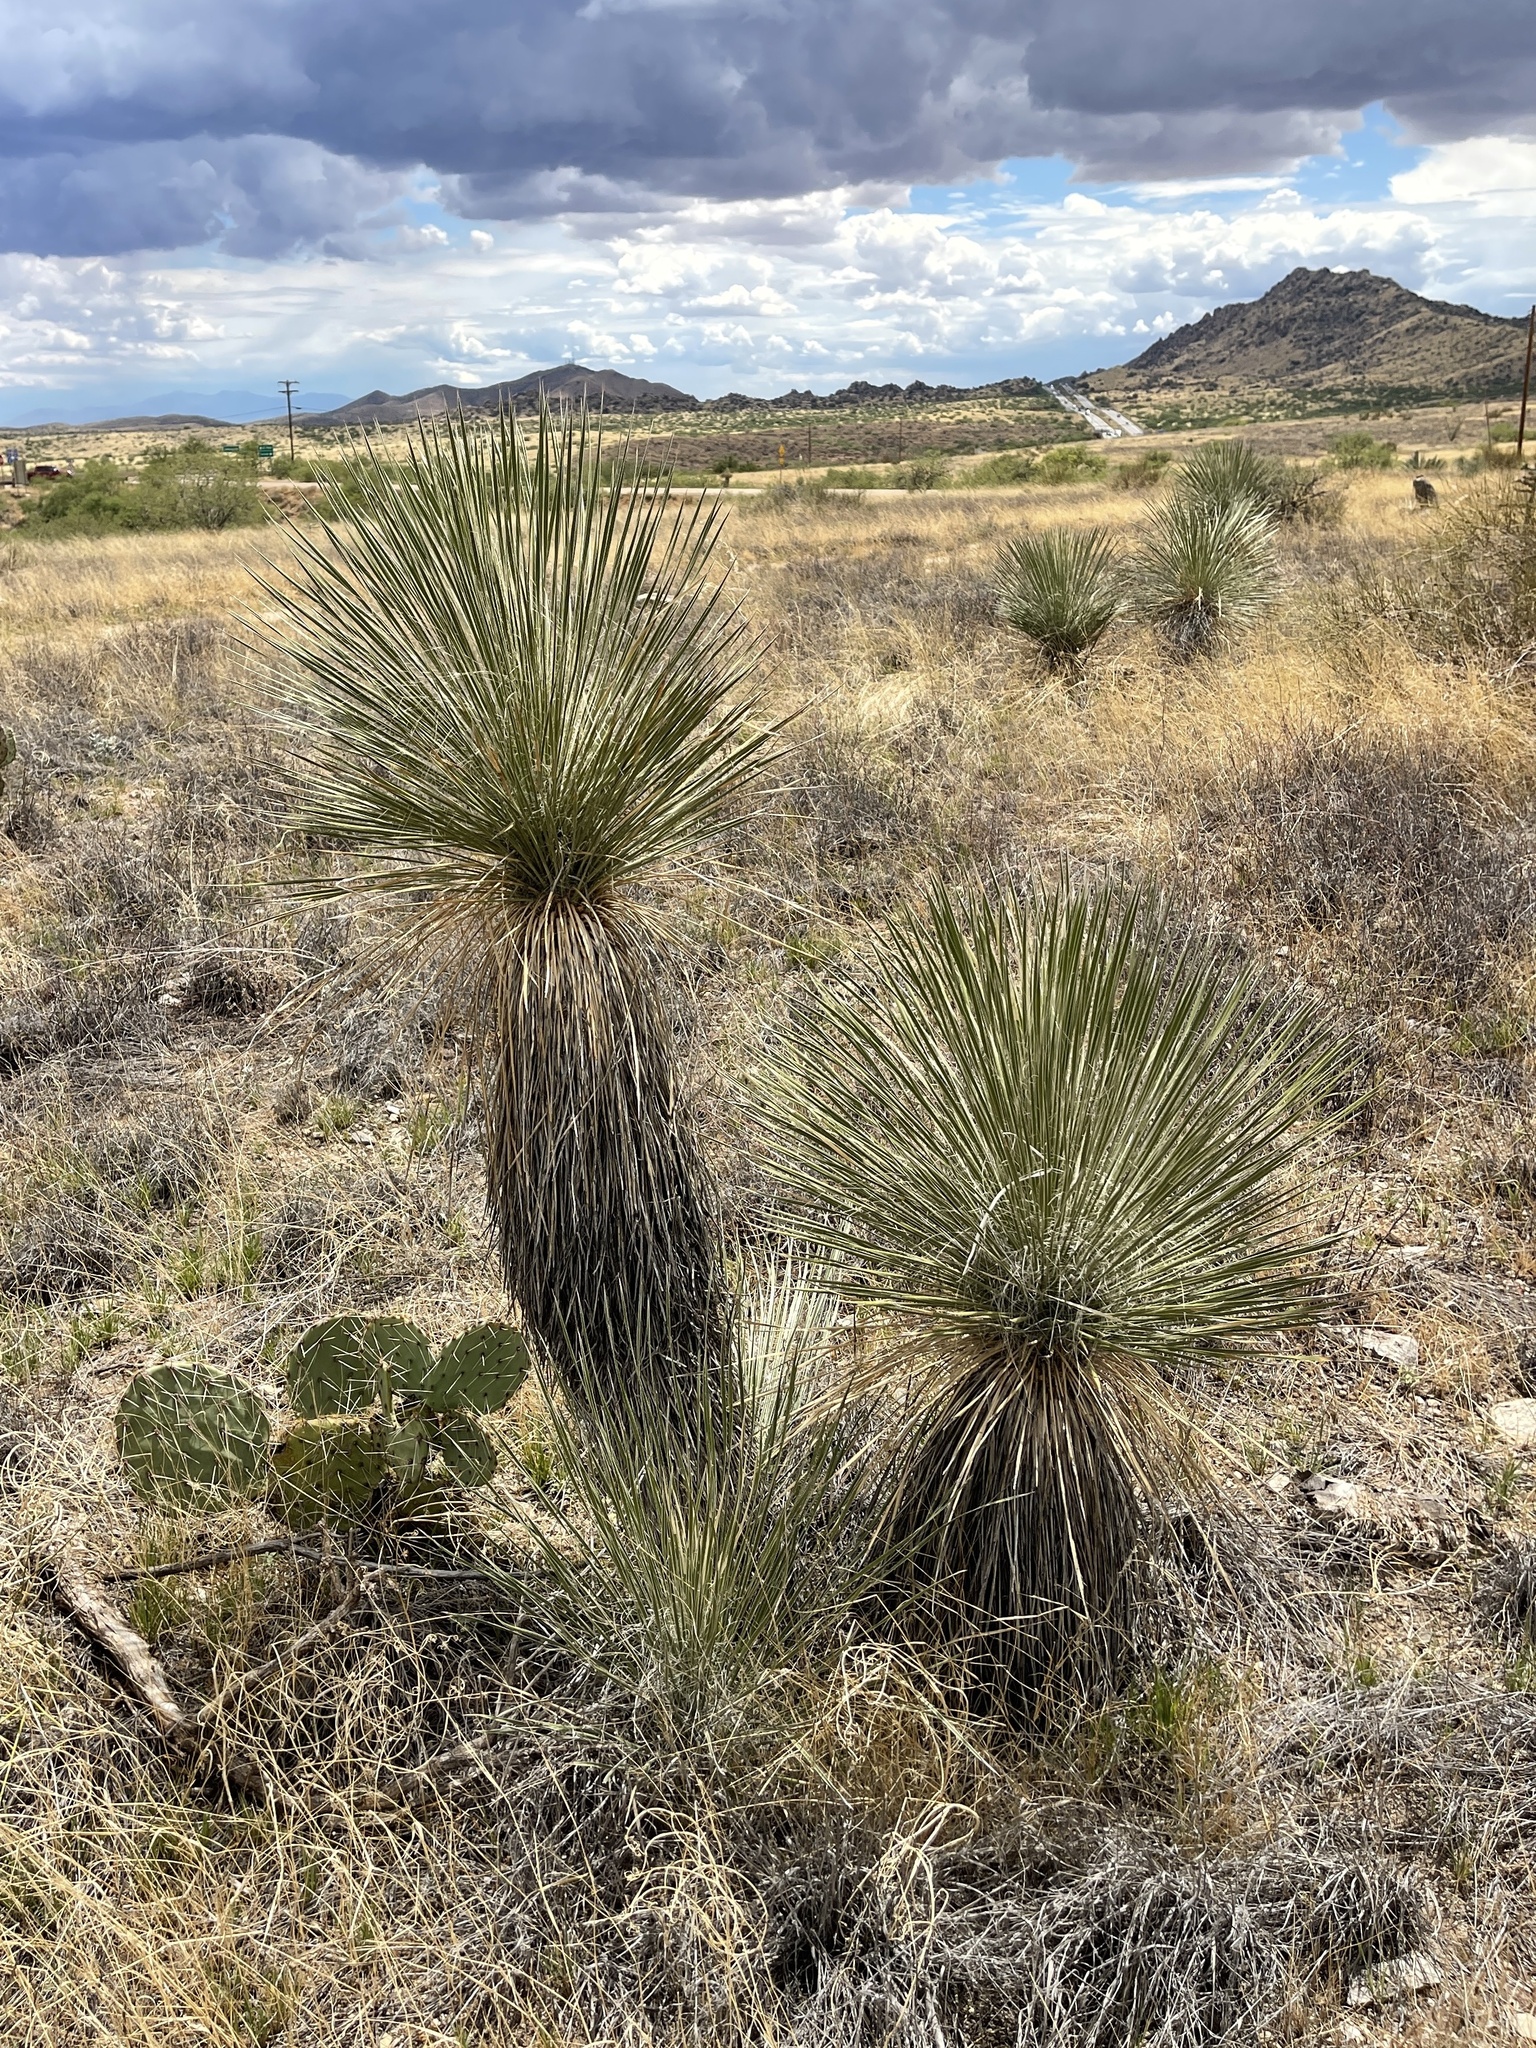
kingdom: Plantae
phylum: Tracheophyta
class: Liliopsida
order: Asparagales
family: Asparagaceae
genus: Yucca
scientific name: Yucca elata
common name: Palmella
